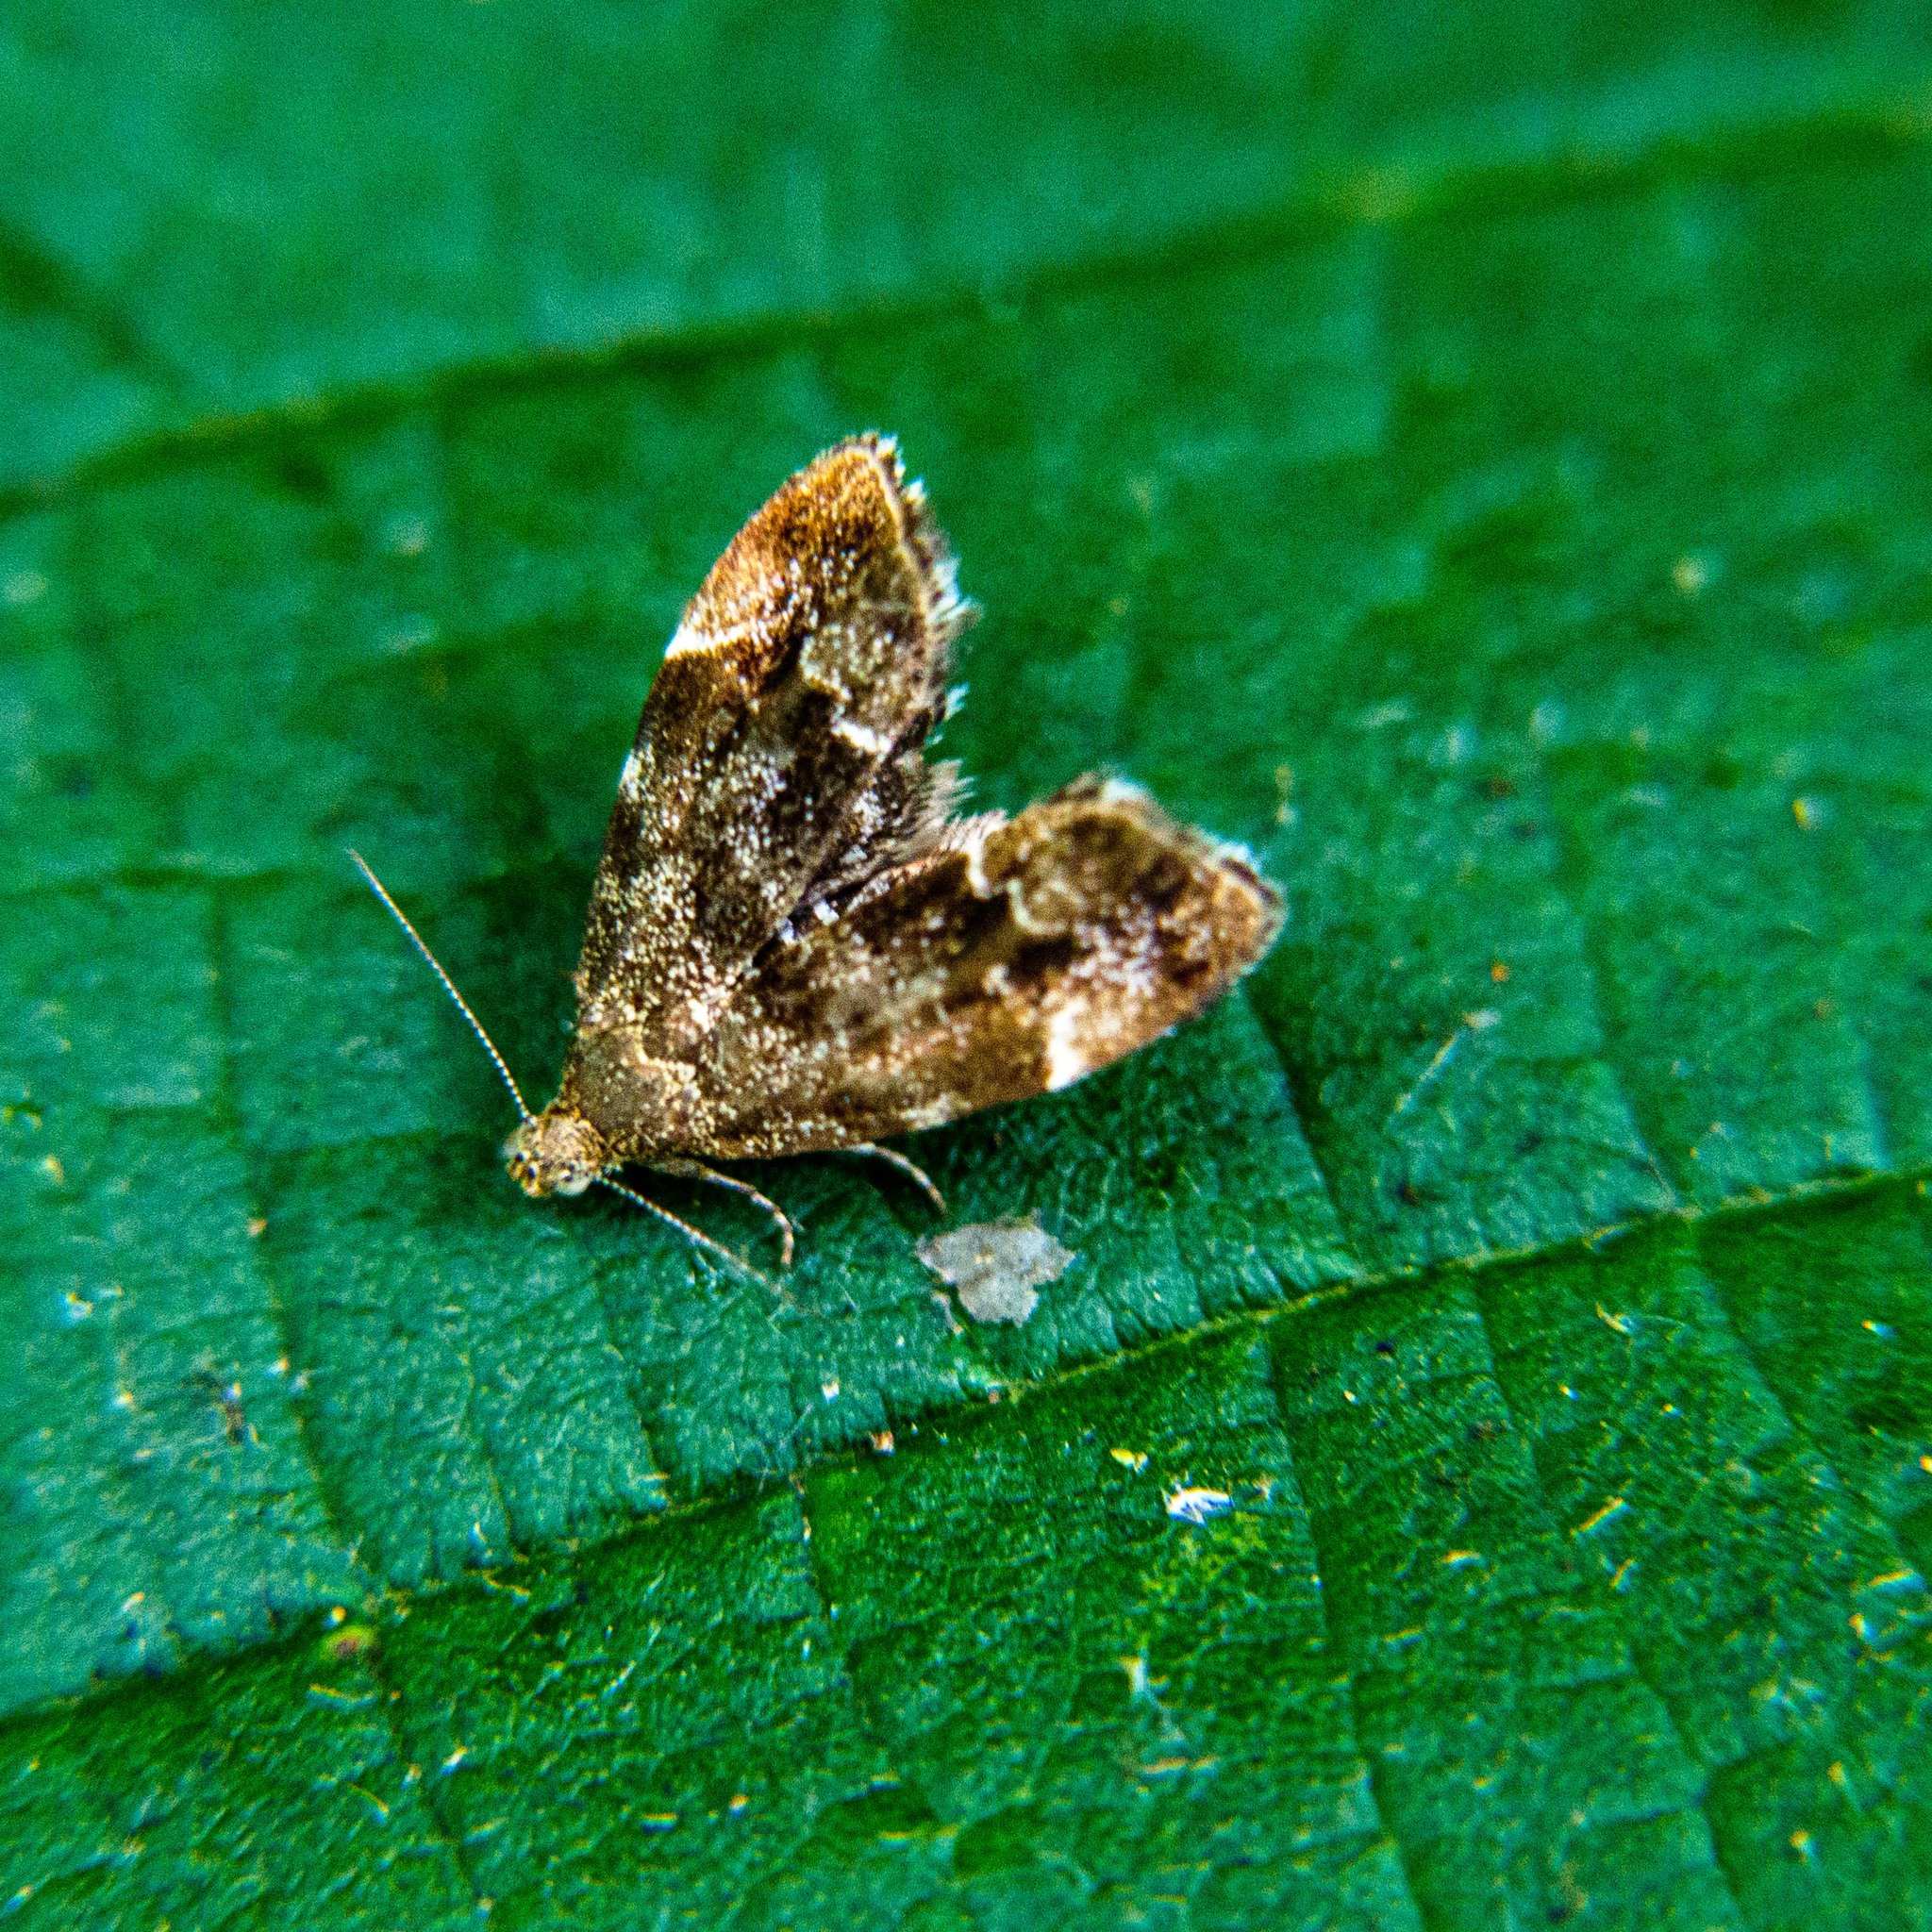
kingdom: Animalia
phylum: Arthropoda
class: Insecta
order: Lepidoptera
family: Choreutidae
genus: Anthophila
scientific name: Anthophila fabriciana
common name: Nettle-tap
